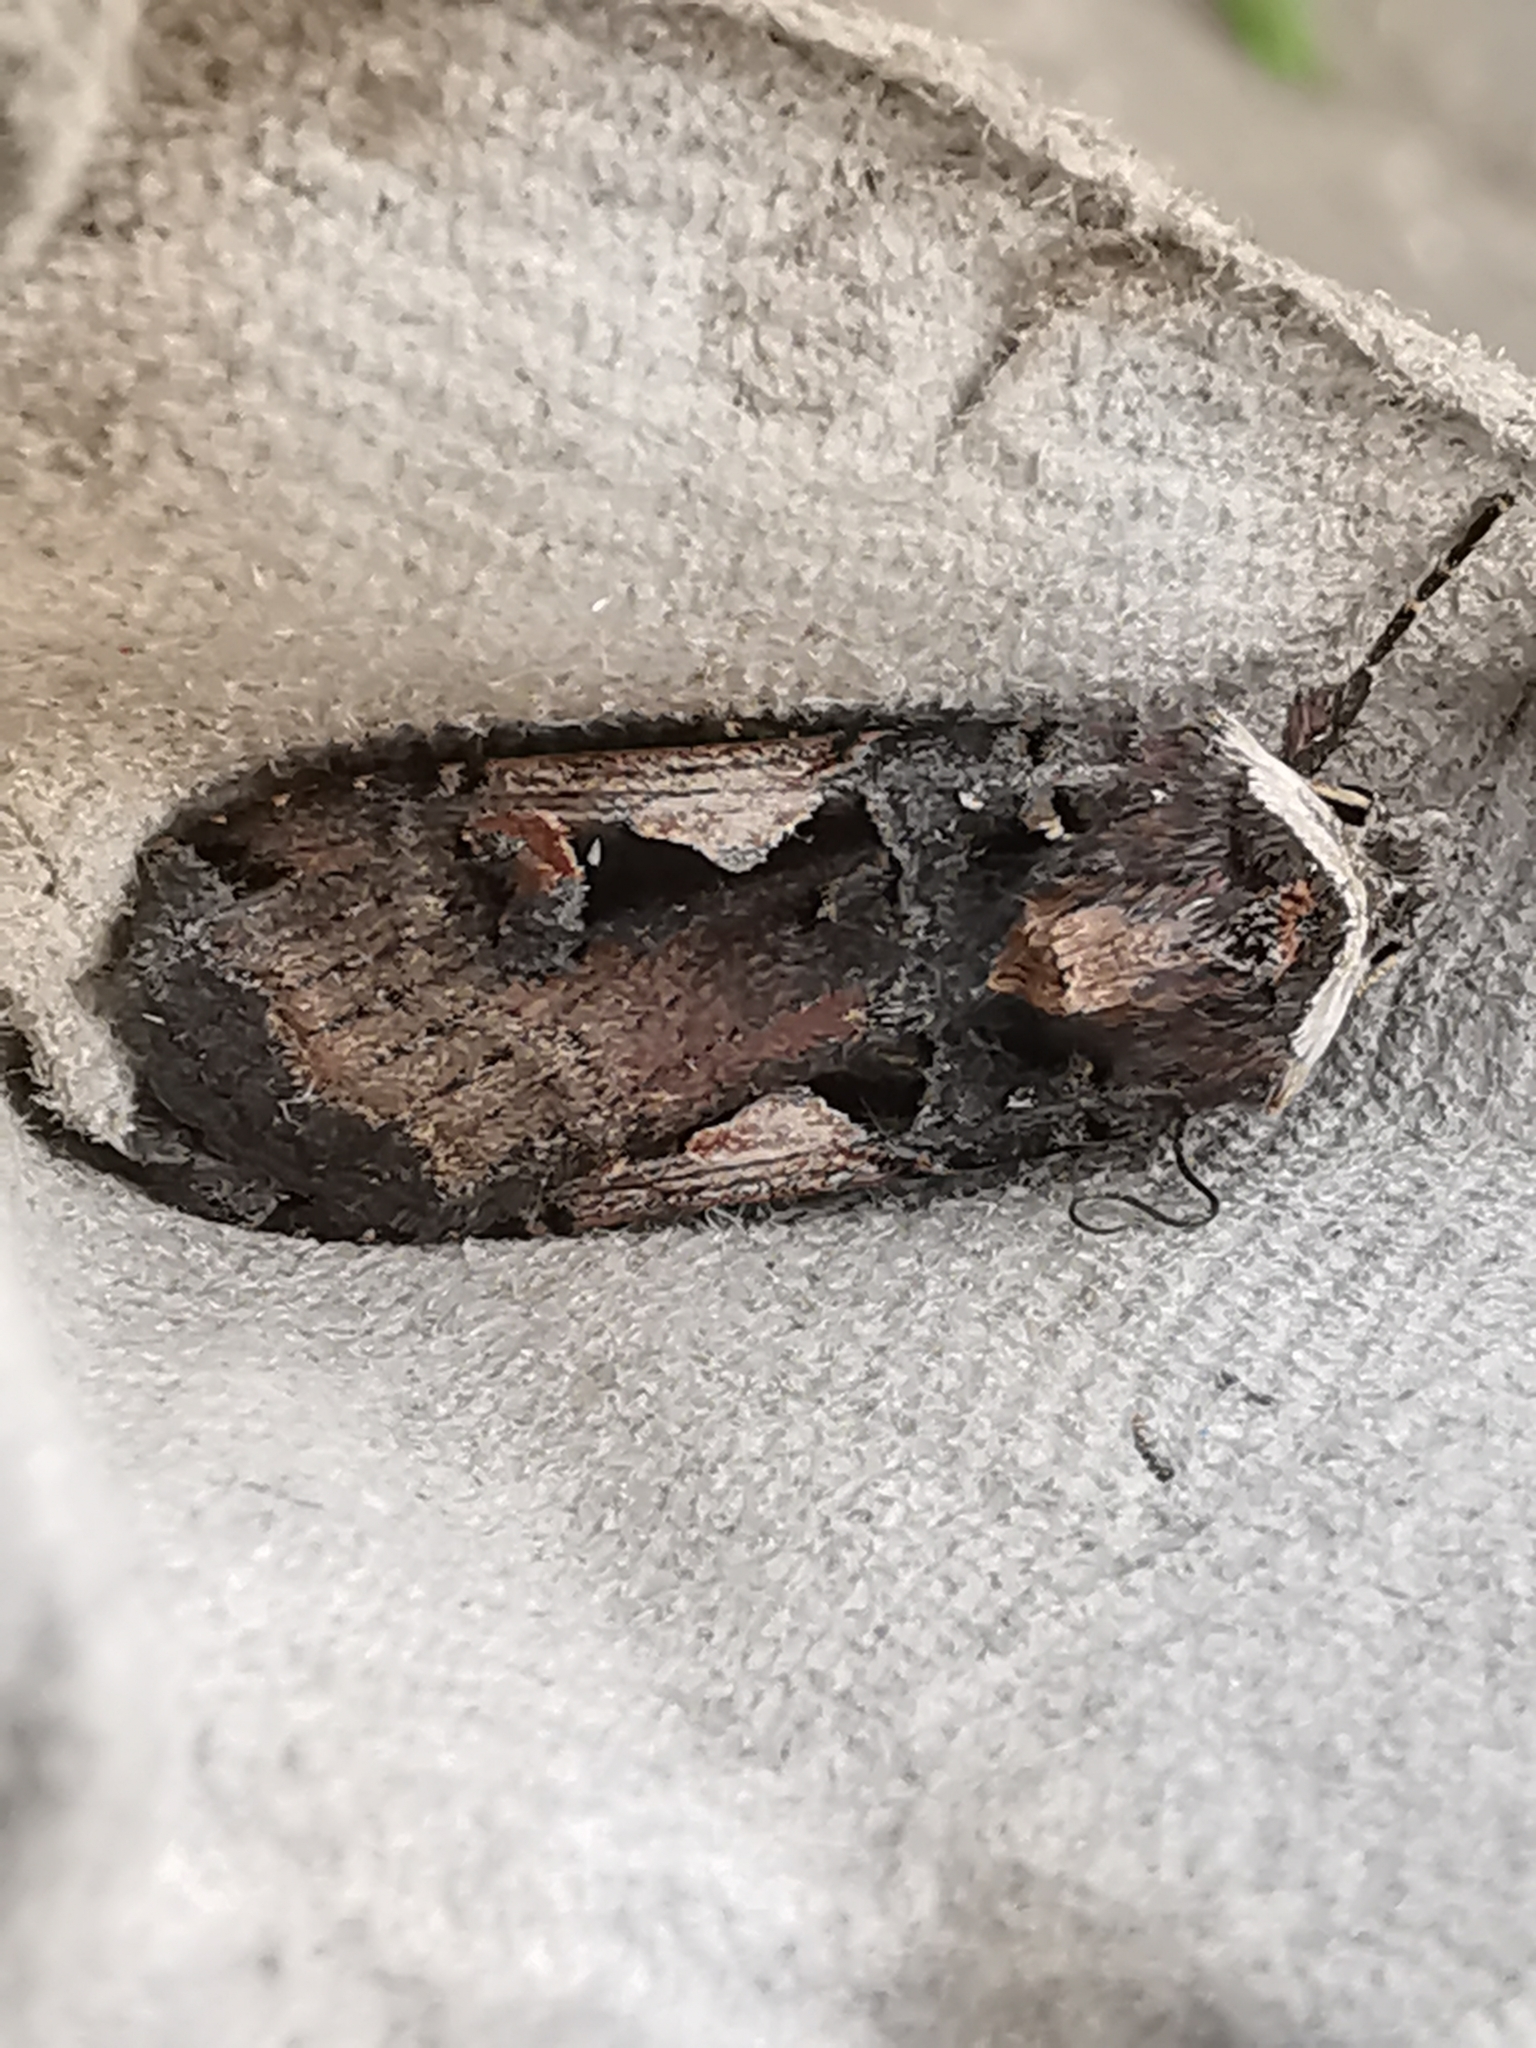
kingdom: Animalia
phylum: Arthropoda
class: Insecta
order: Lepidoptera
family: Noctuidae
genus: Xestia
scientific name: Xestia c-nigrum
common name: Setaceous hebrew character
